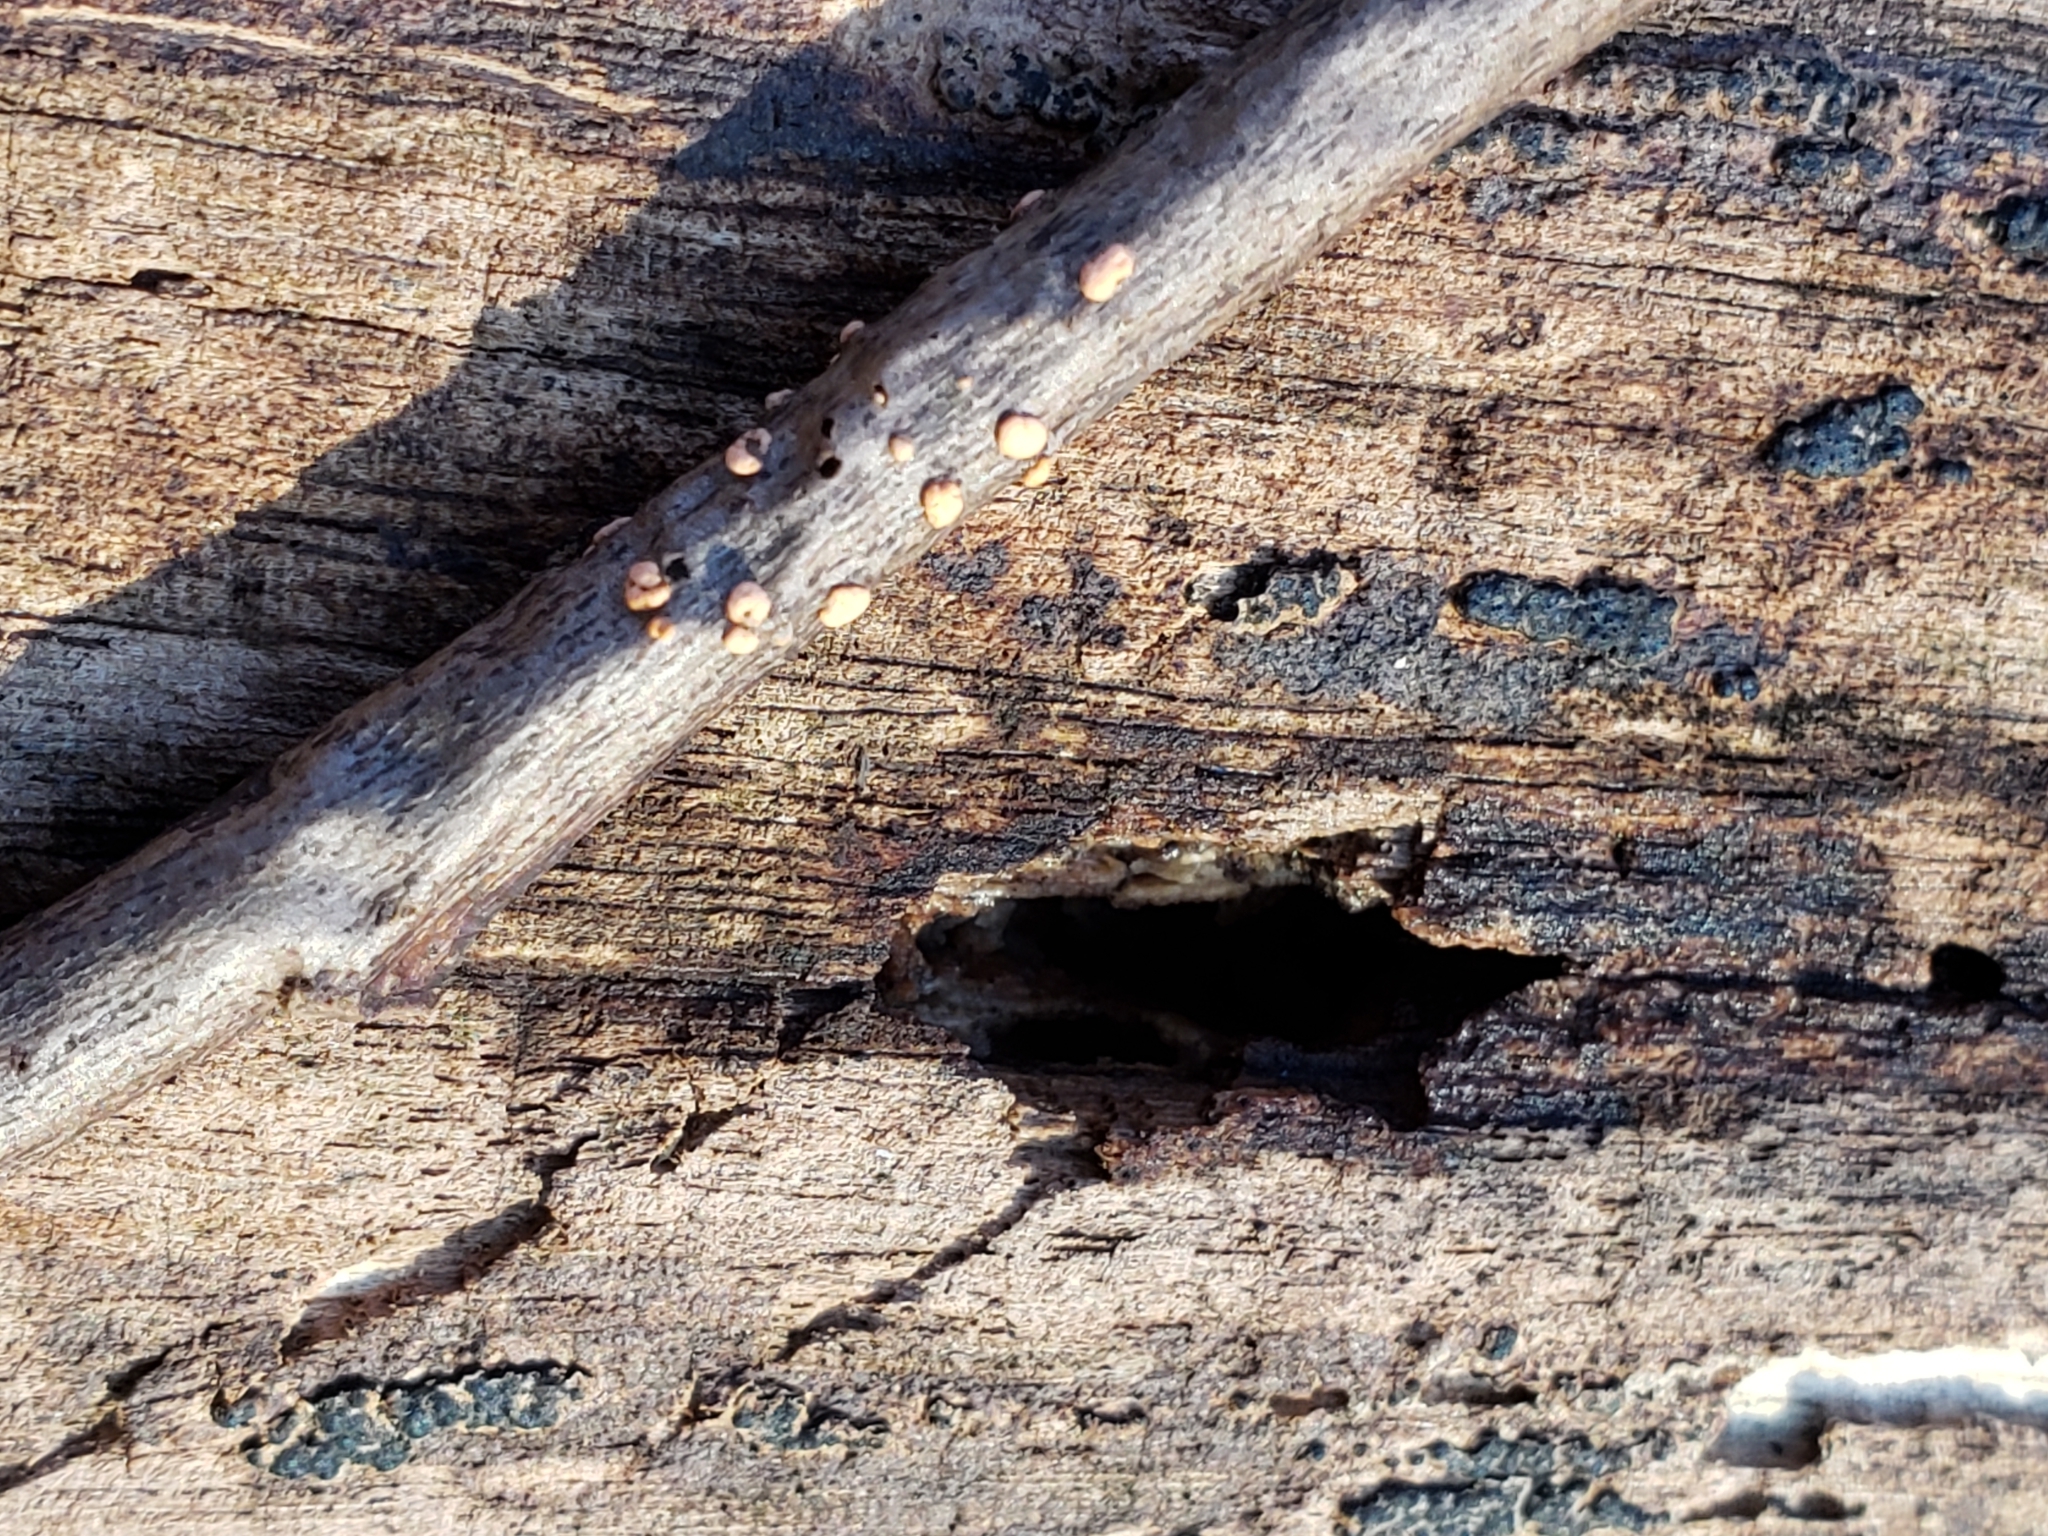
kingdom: Fungi
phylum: Ascomycota
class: Sordariomycetes
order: Hypocreales
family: Nectriaceae
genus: Nectria
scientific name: Nectria cinnabarina
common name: Coral spot
